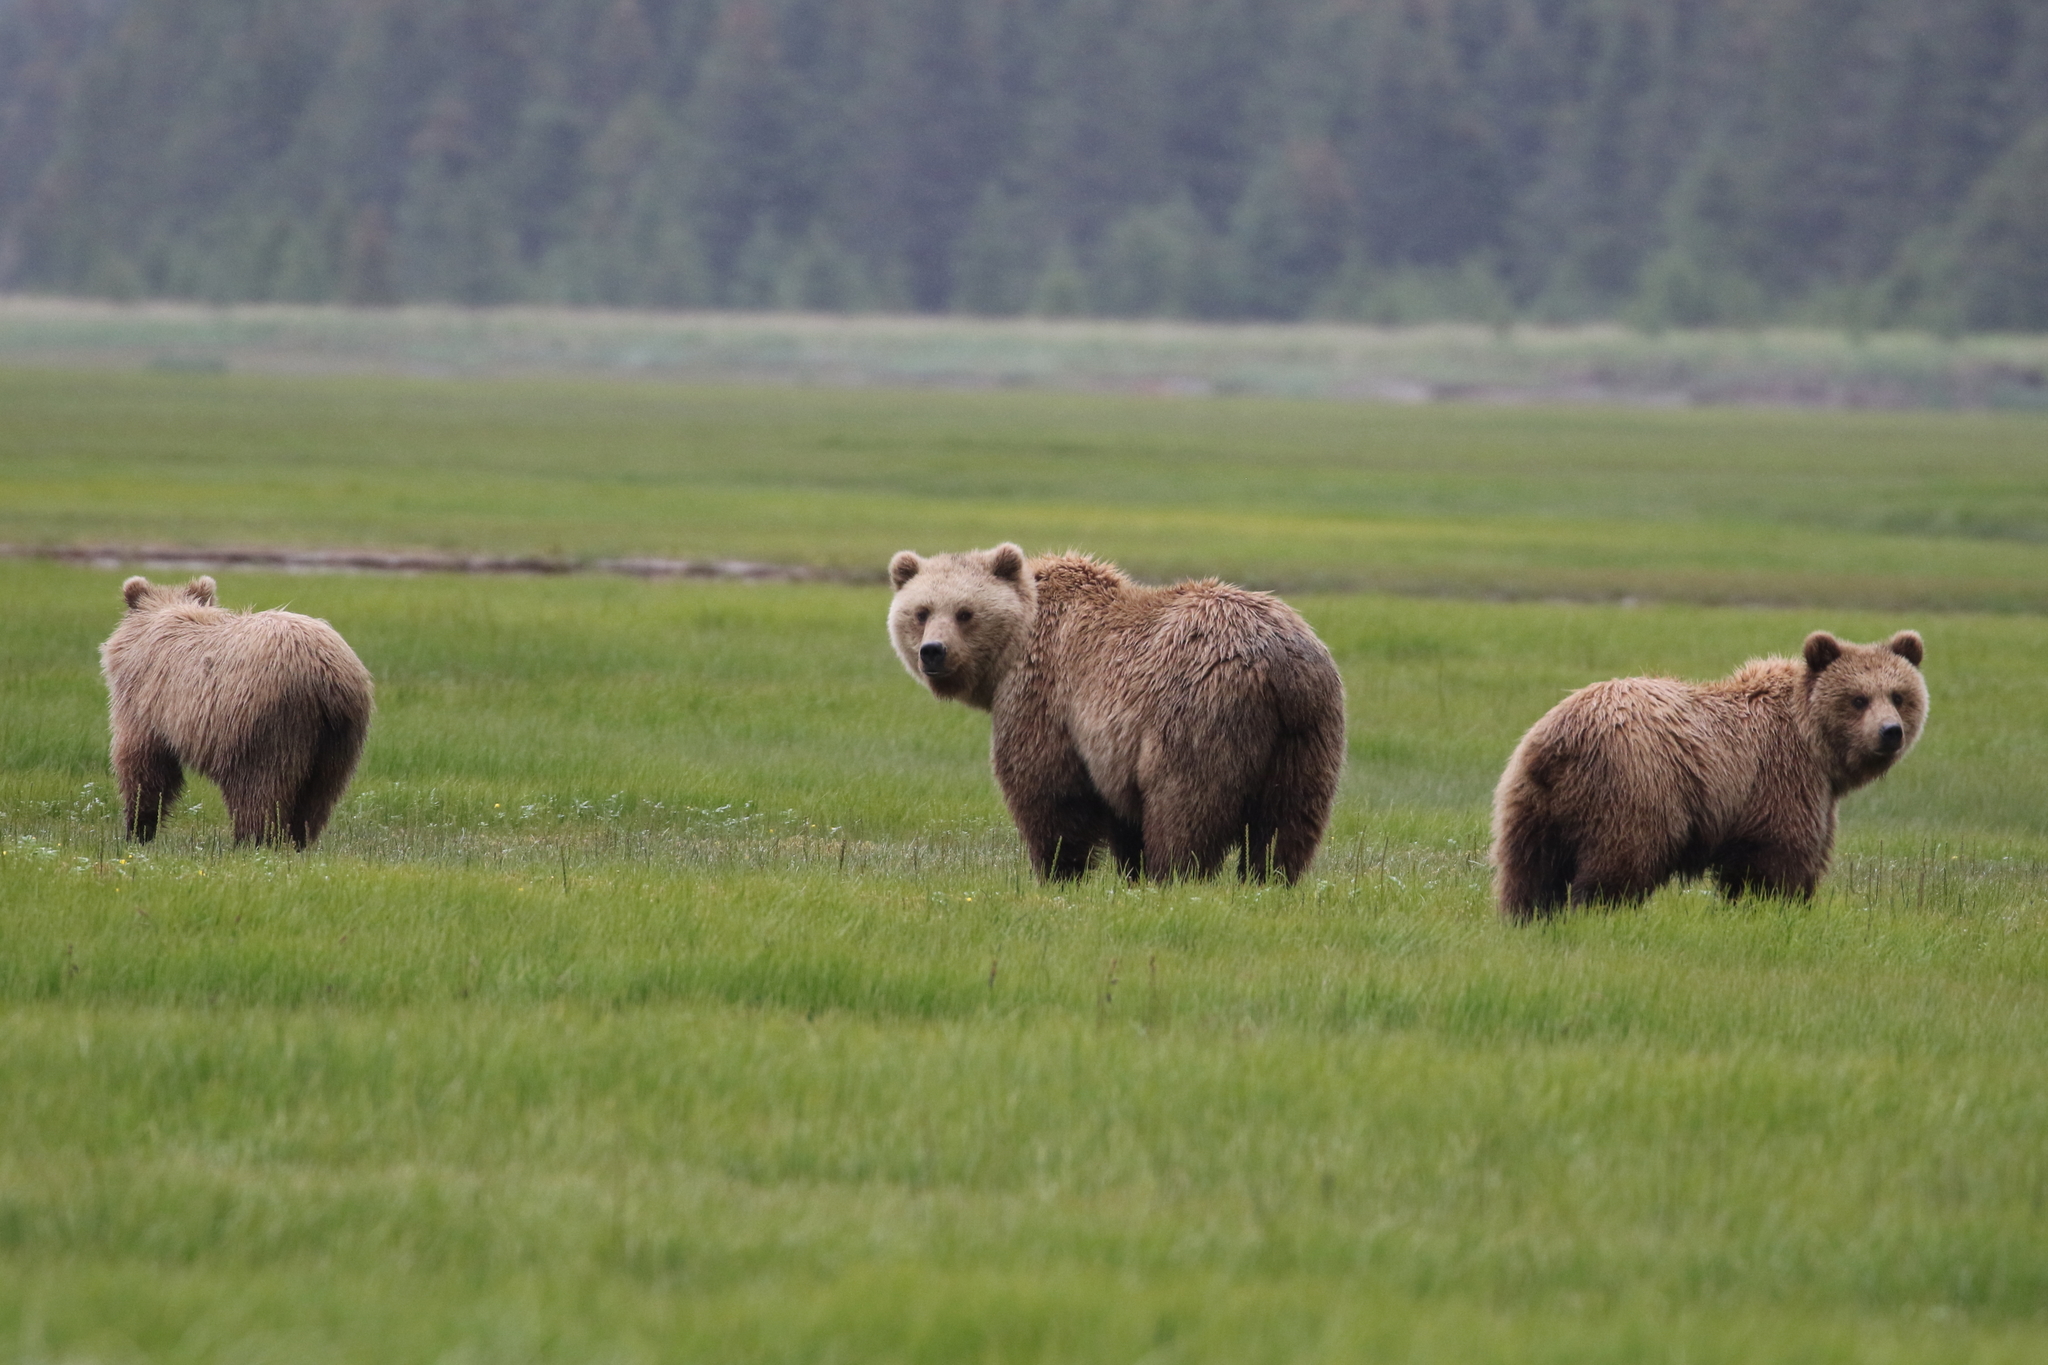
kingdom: Animalia
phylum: Chordata
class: Mammalia
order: Carnivora
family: Ursidae
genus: Ursus
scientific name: Ursus arctos
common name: Brown bear
